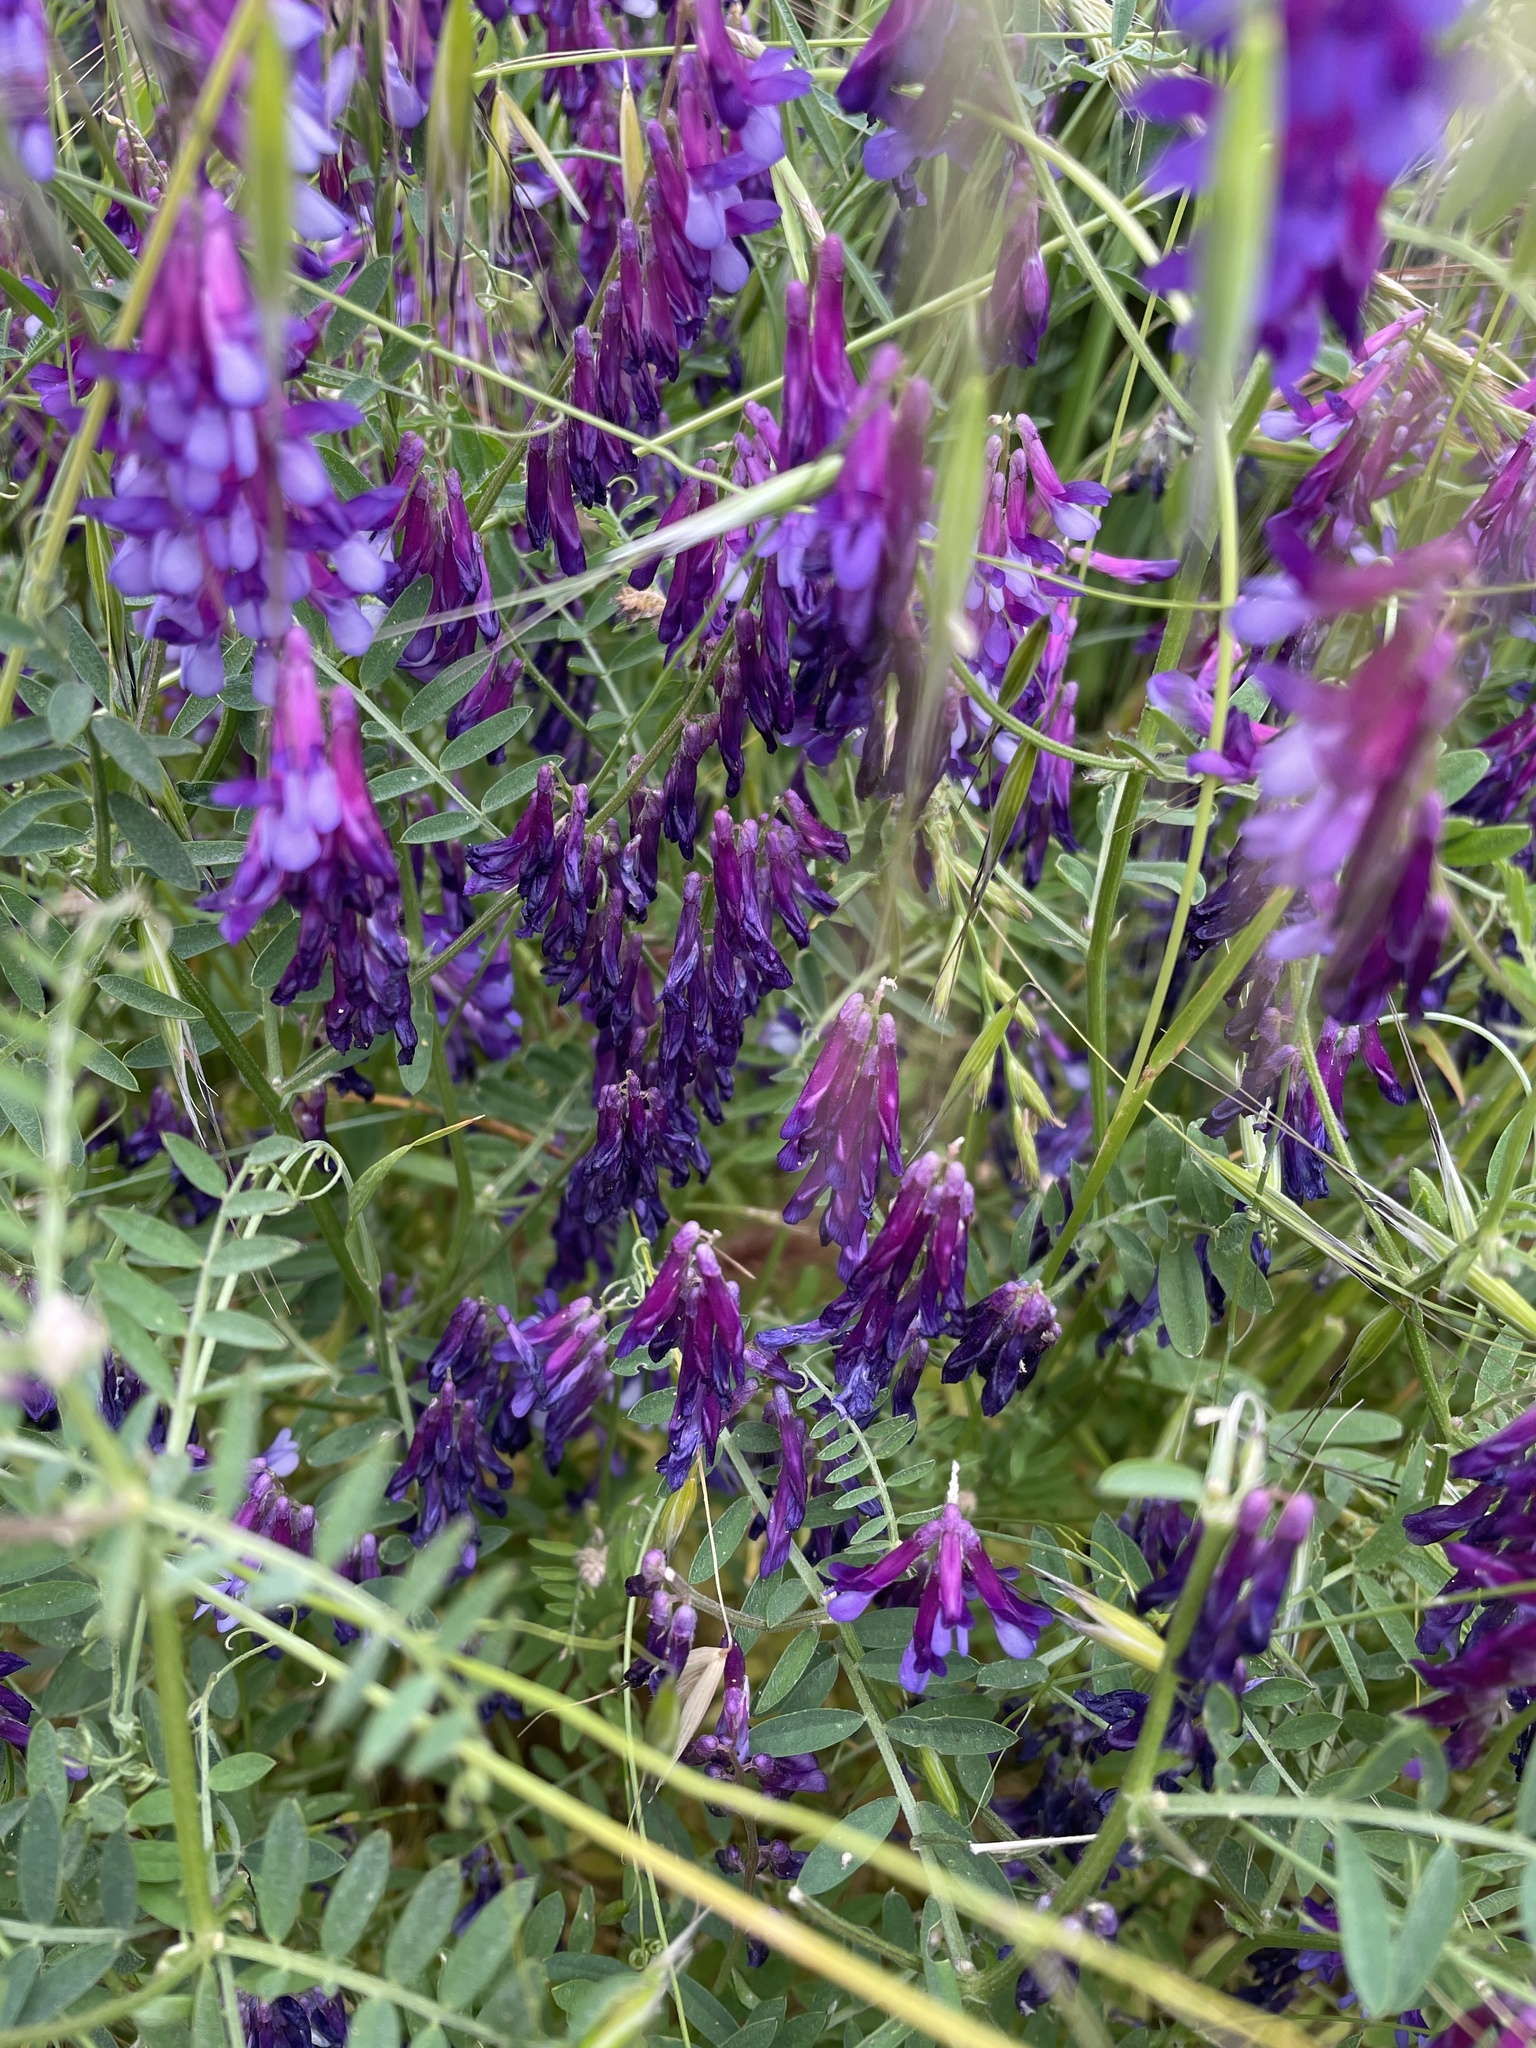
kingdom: Plantae
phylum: Tracheophyta
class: Magnoliopsida
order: Fabales
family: Fabaceae
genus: Vicia
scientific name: Vicia villosa
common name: Fodder vetch
